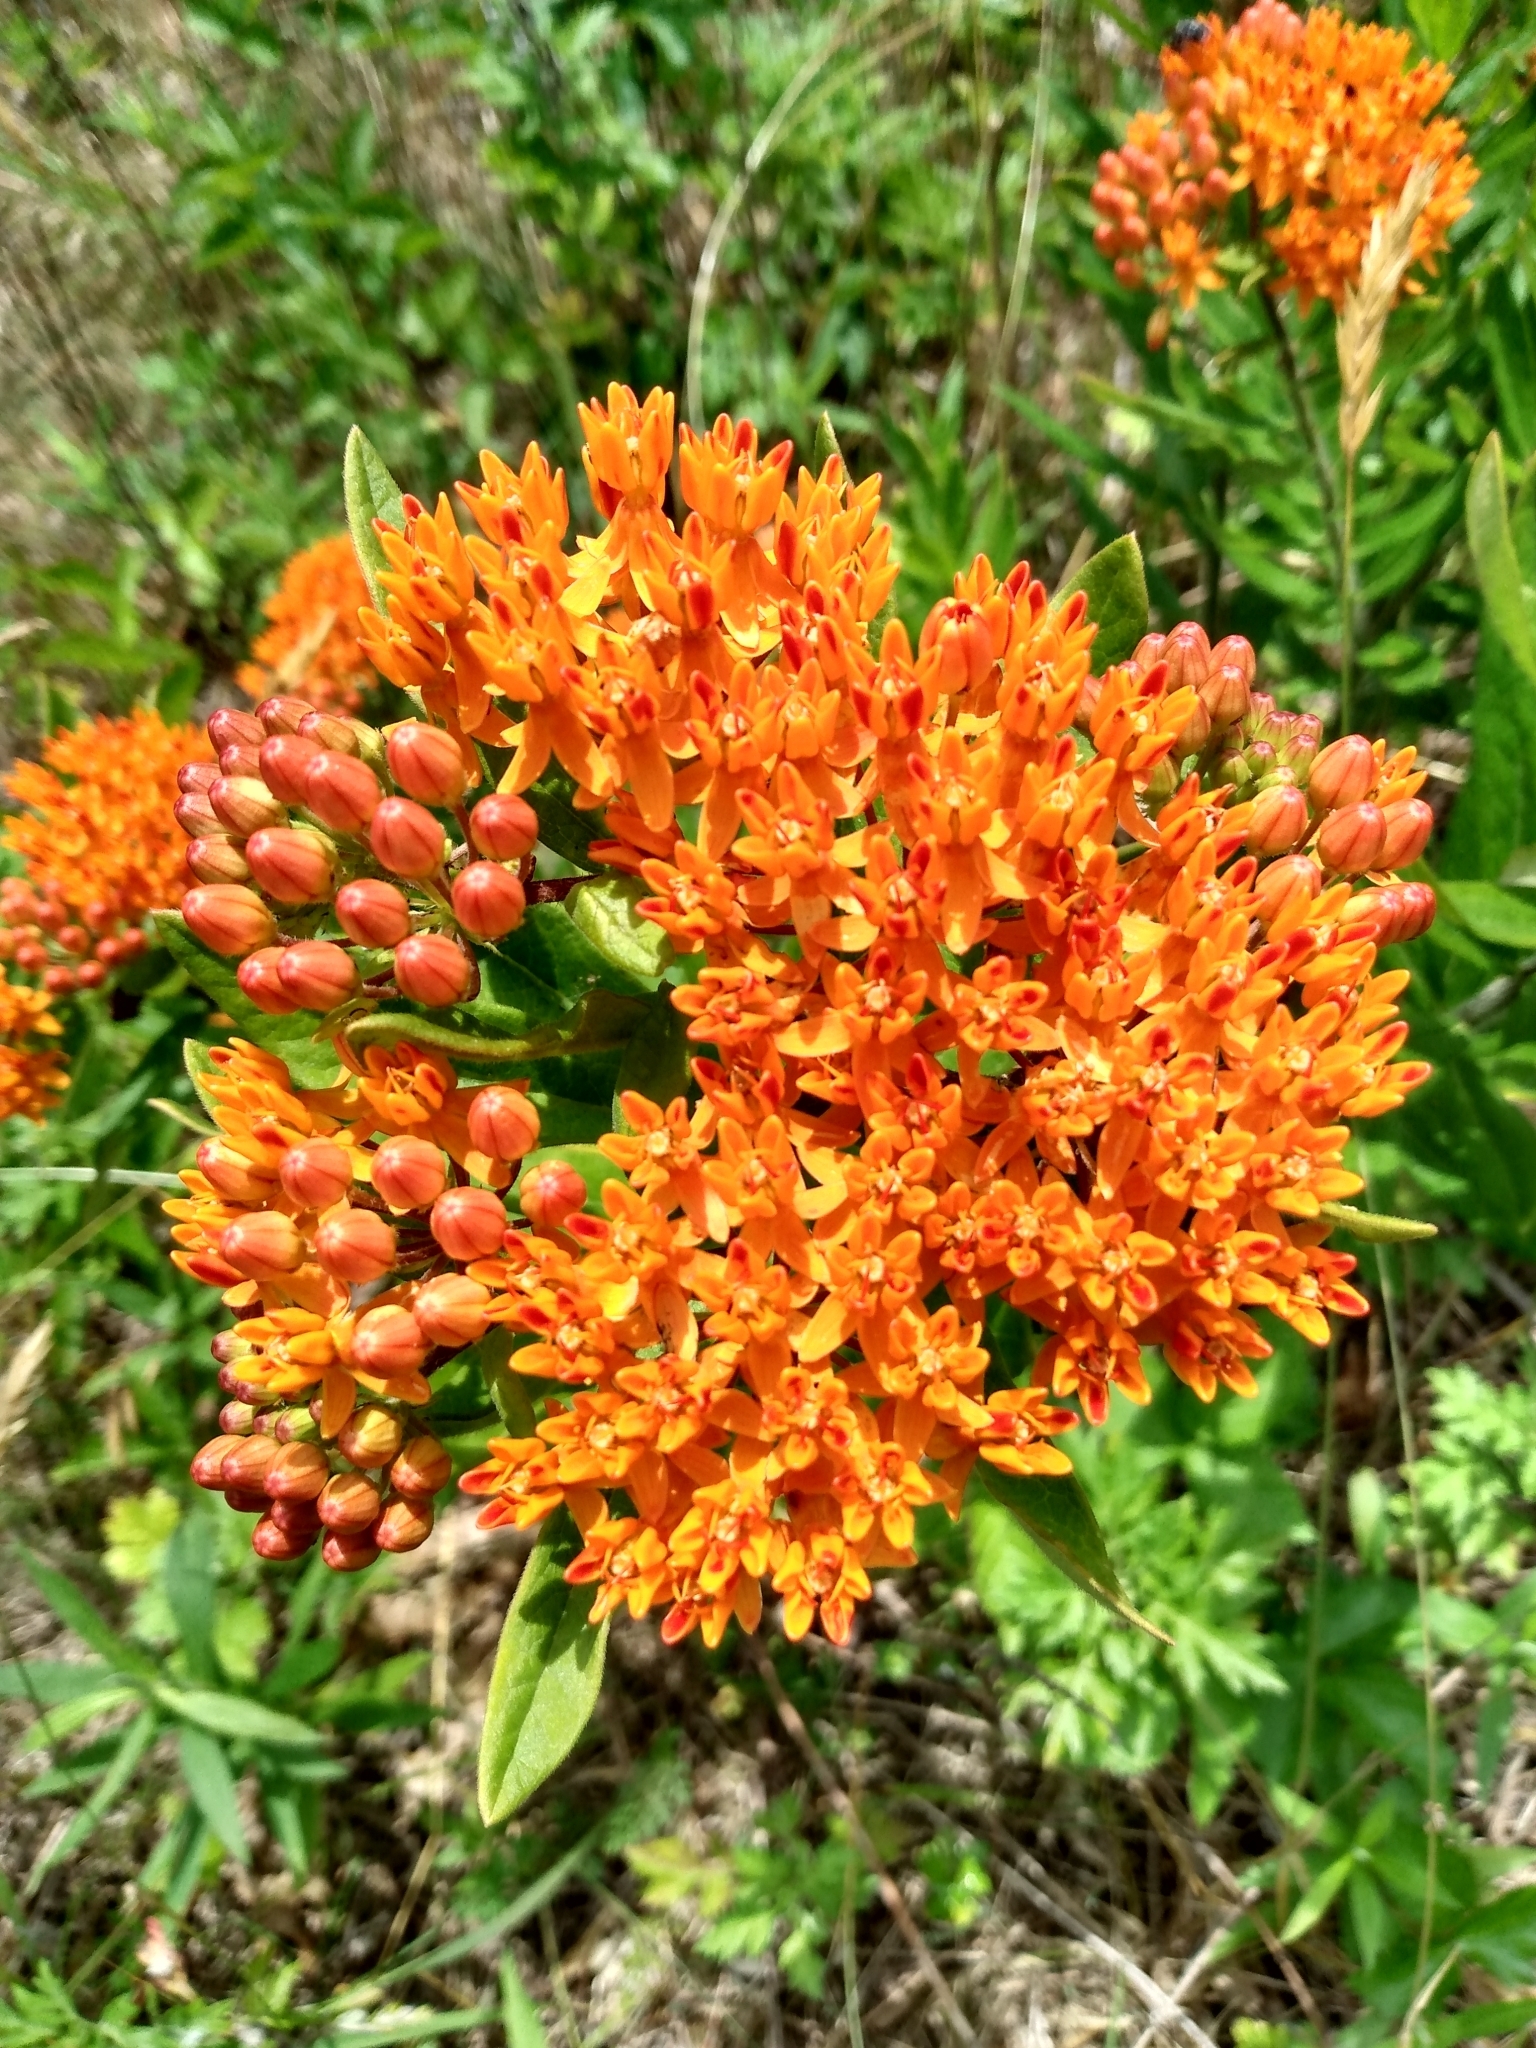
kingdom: Plantae
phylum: Tracheophyta
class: Magnoliopsida
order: Gentianales
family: Apocynaceae
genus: Asclepias
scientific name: Asclepias tuberosa
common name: Butterfly milkweed
